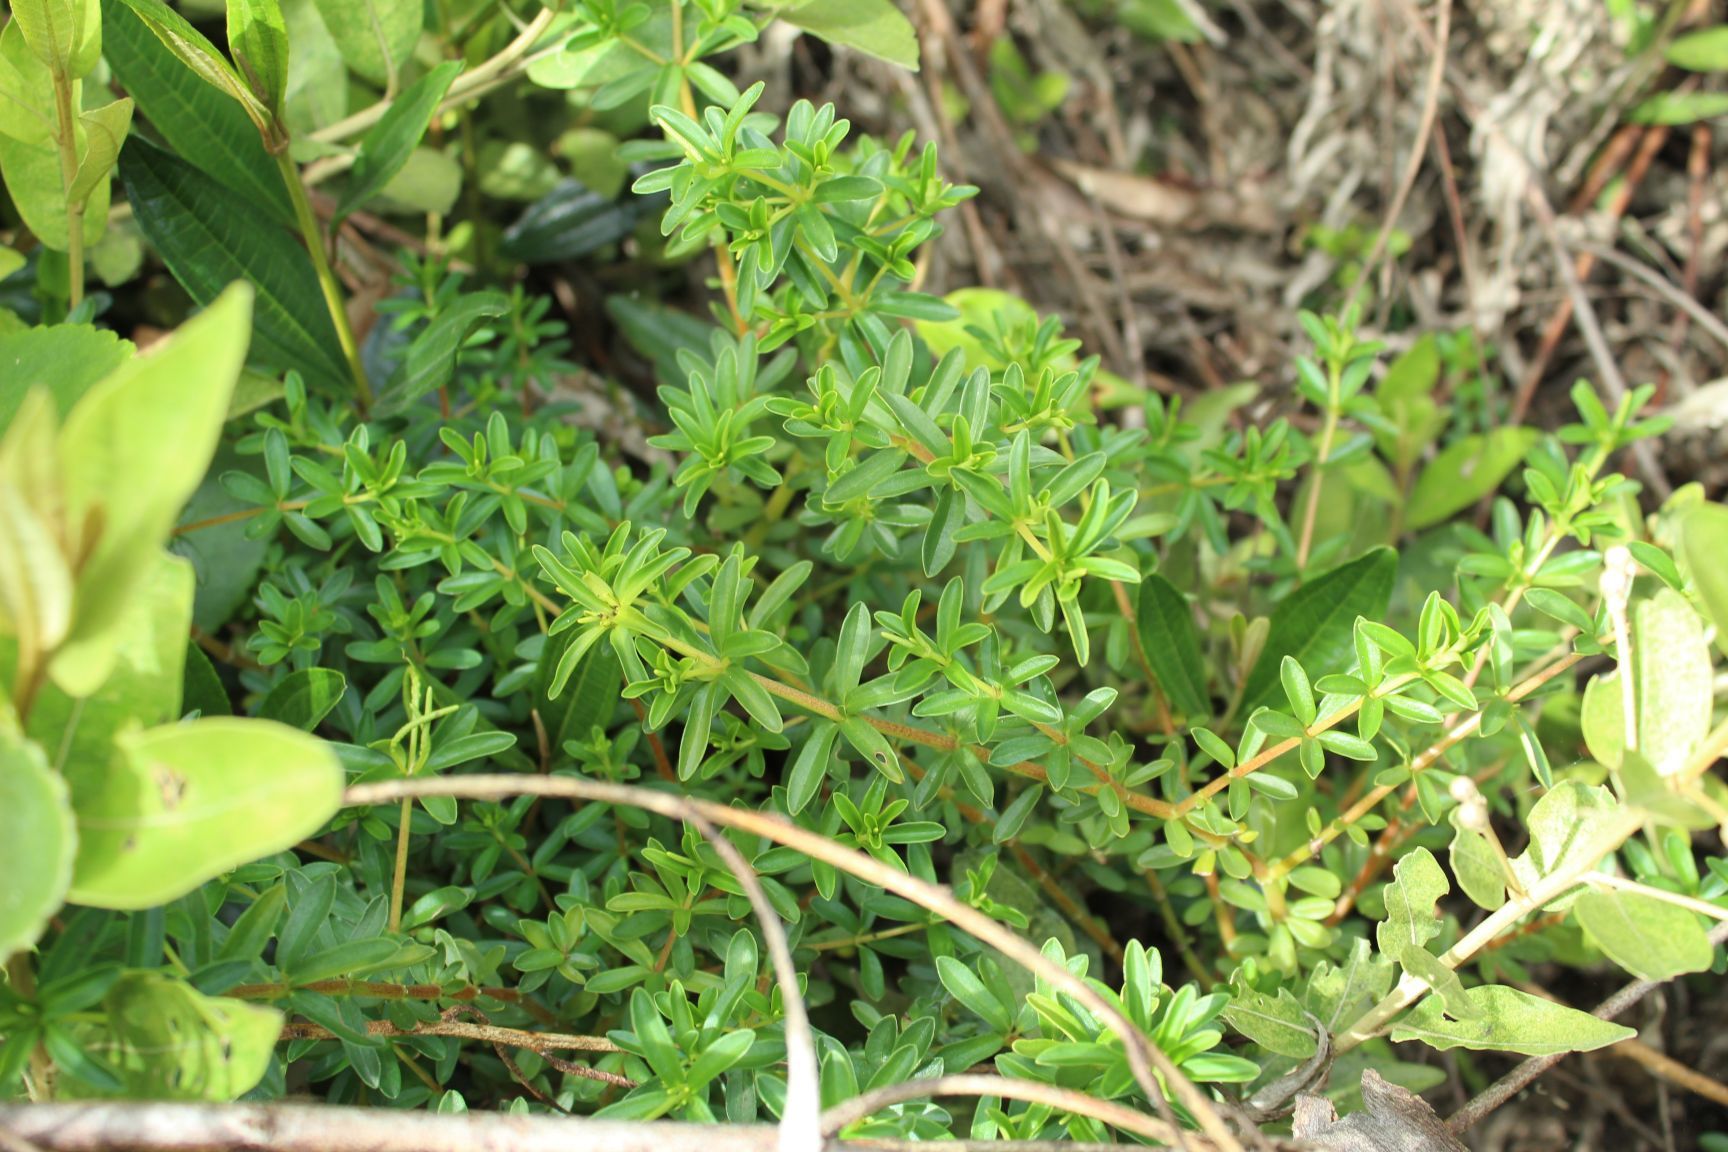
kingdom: Plantae
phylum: Tracheophyta
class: Magnoliopsida
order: Piperales
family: Piperaceae
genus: Peperomia
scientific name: Peperomia galioides
